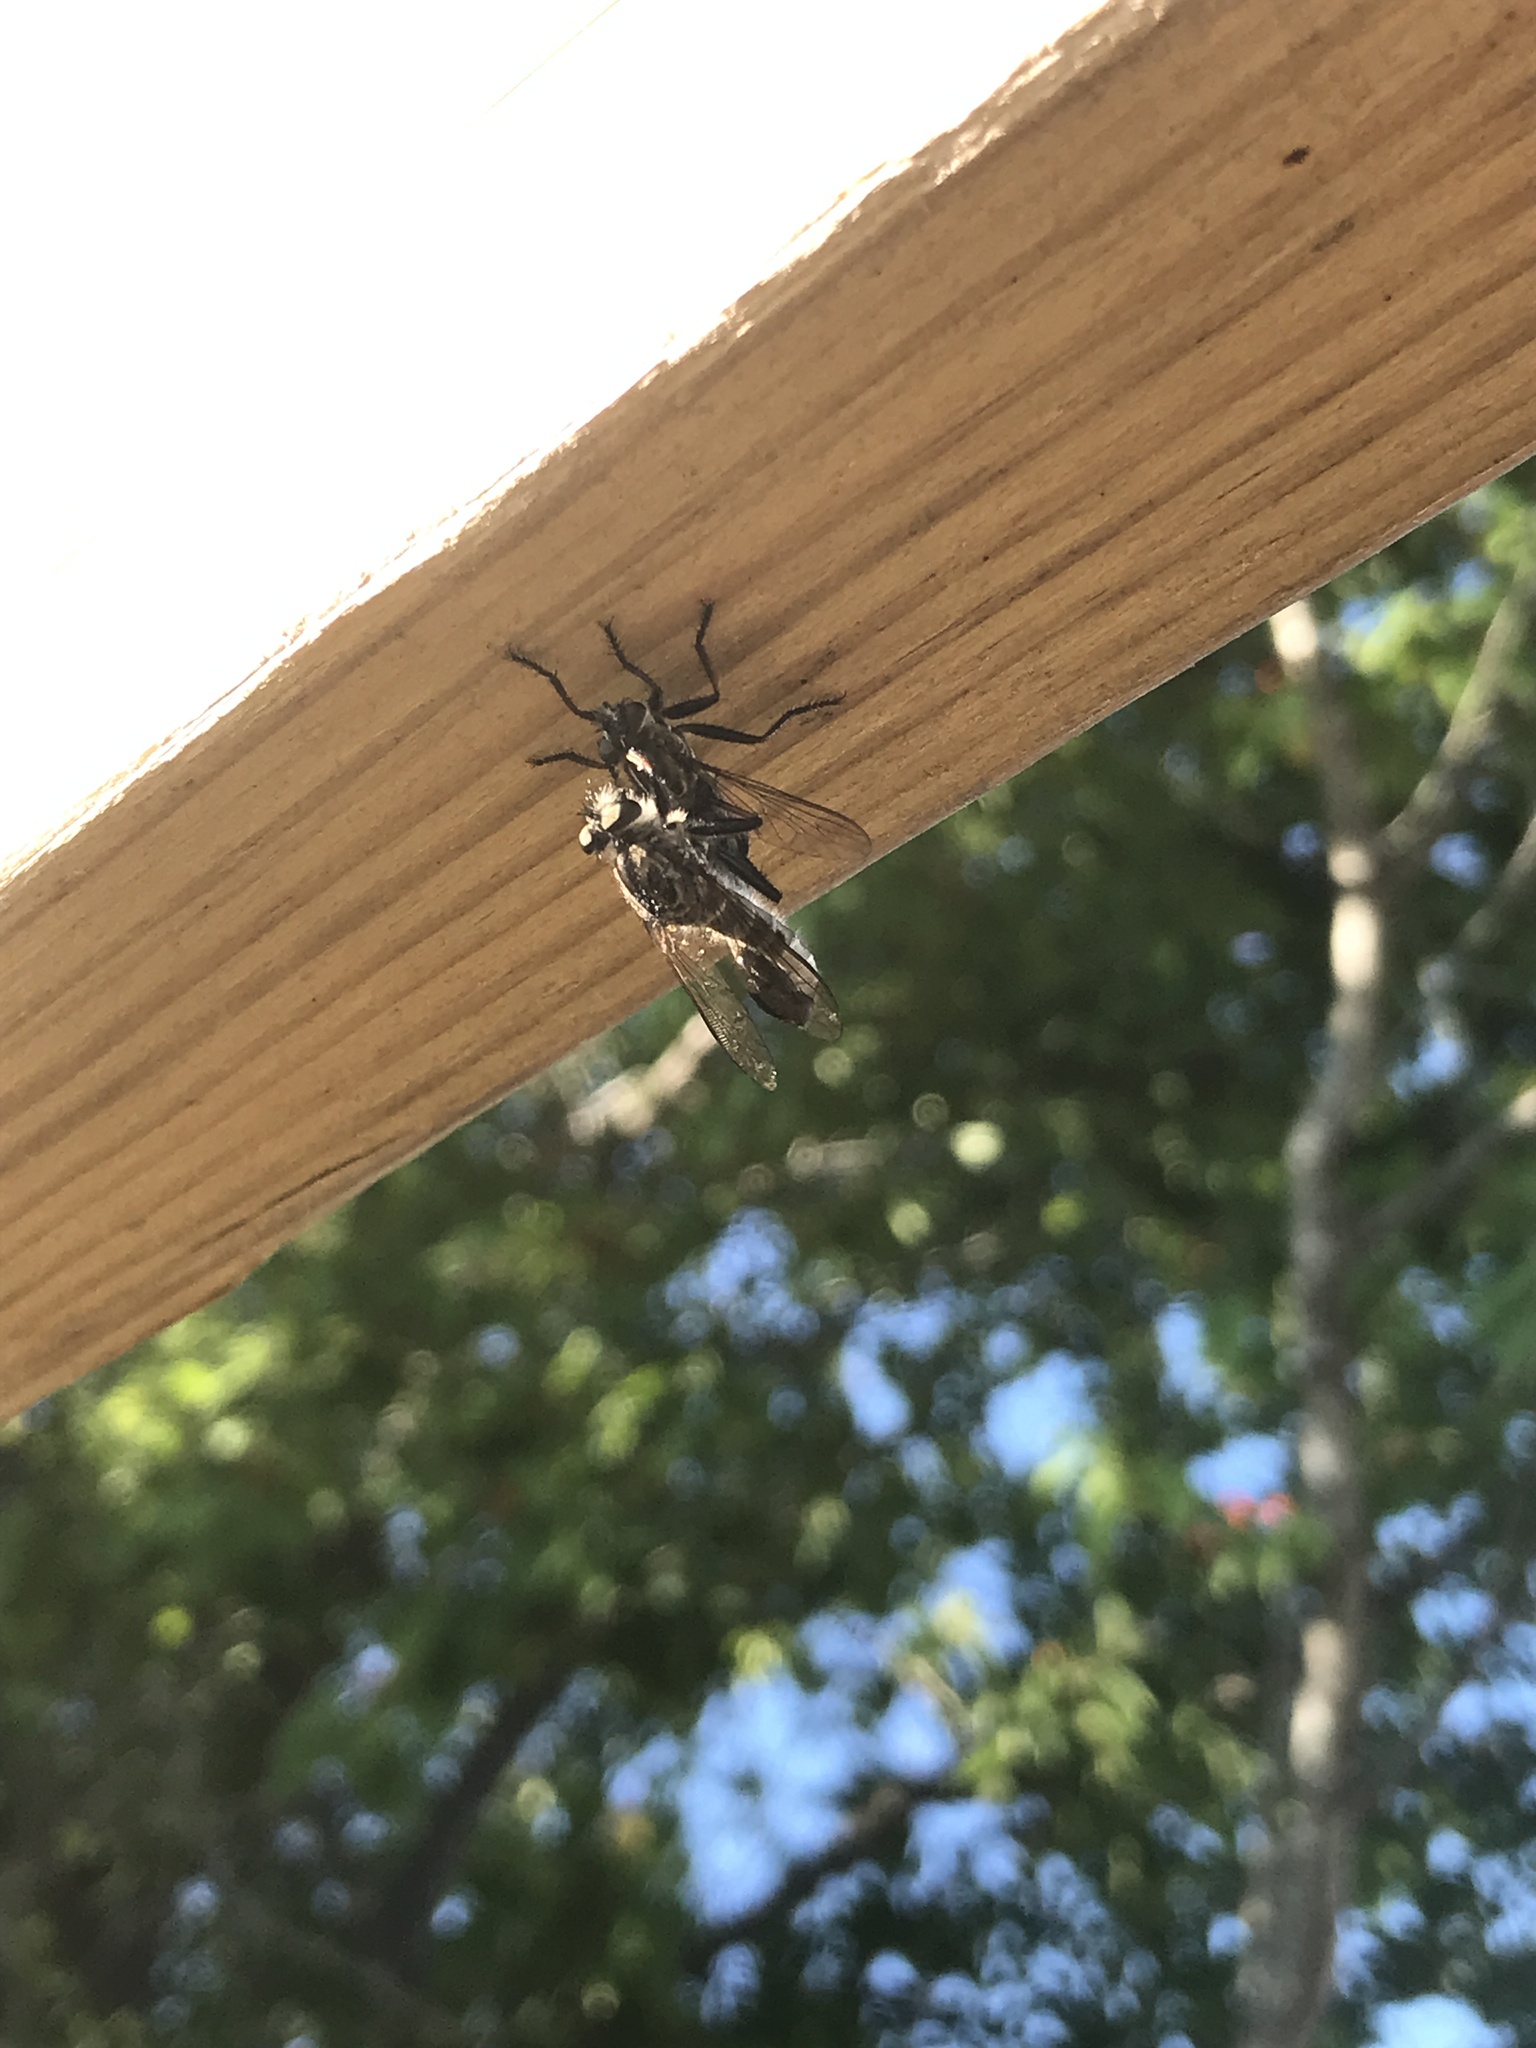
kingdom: Animalia
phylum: Arthropoda
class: Insecta
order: Diptera
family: Asilidae
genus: Efferia
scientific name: Efferia aestuans
